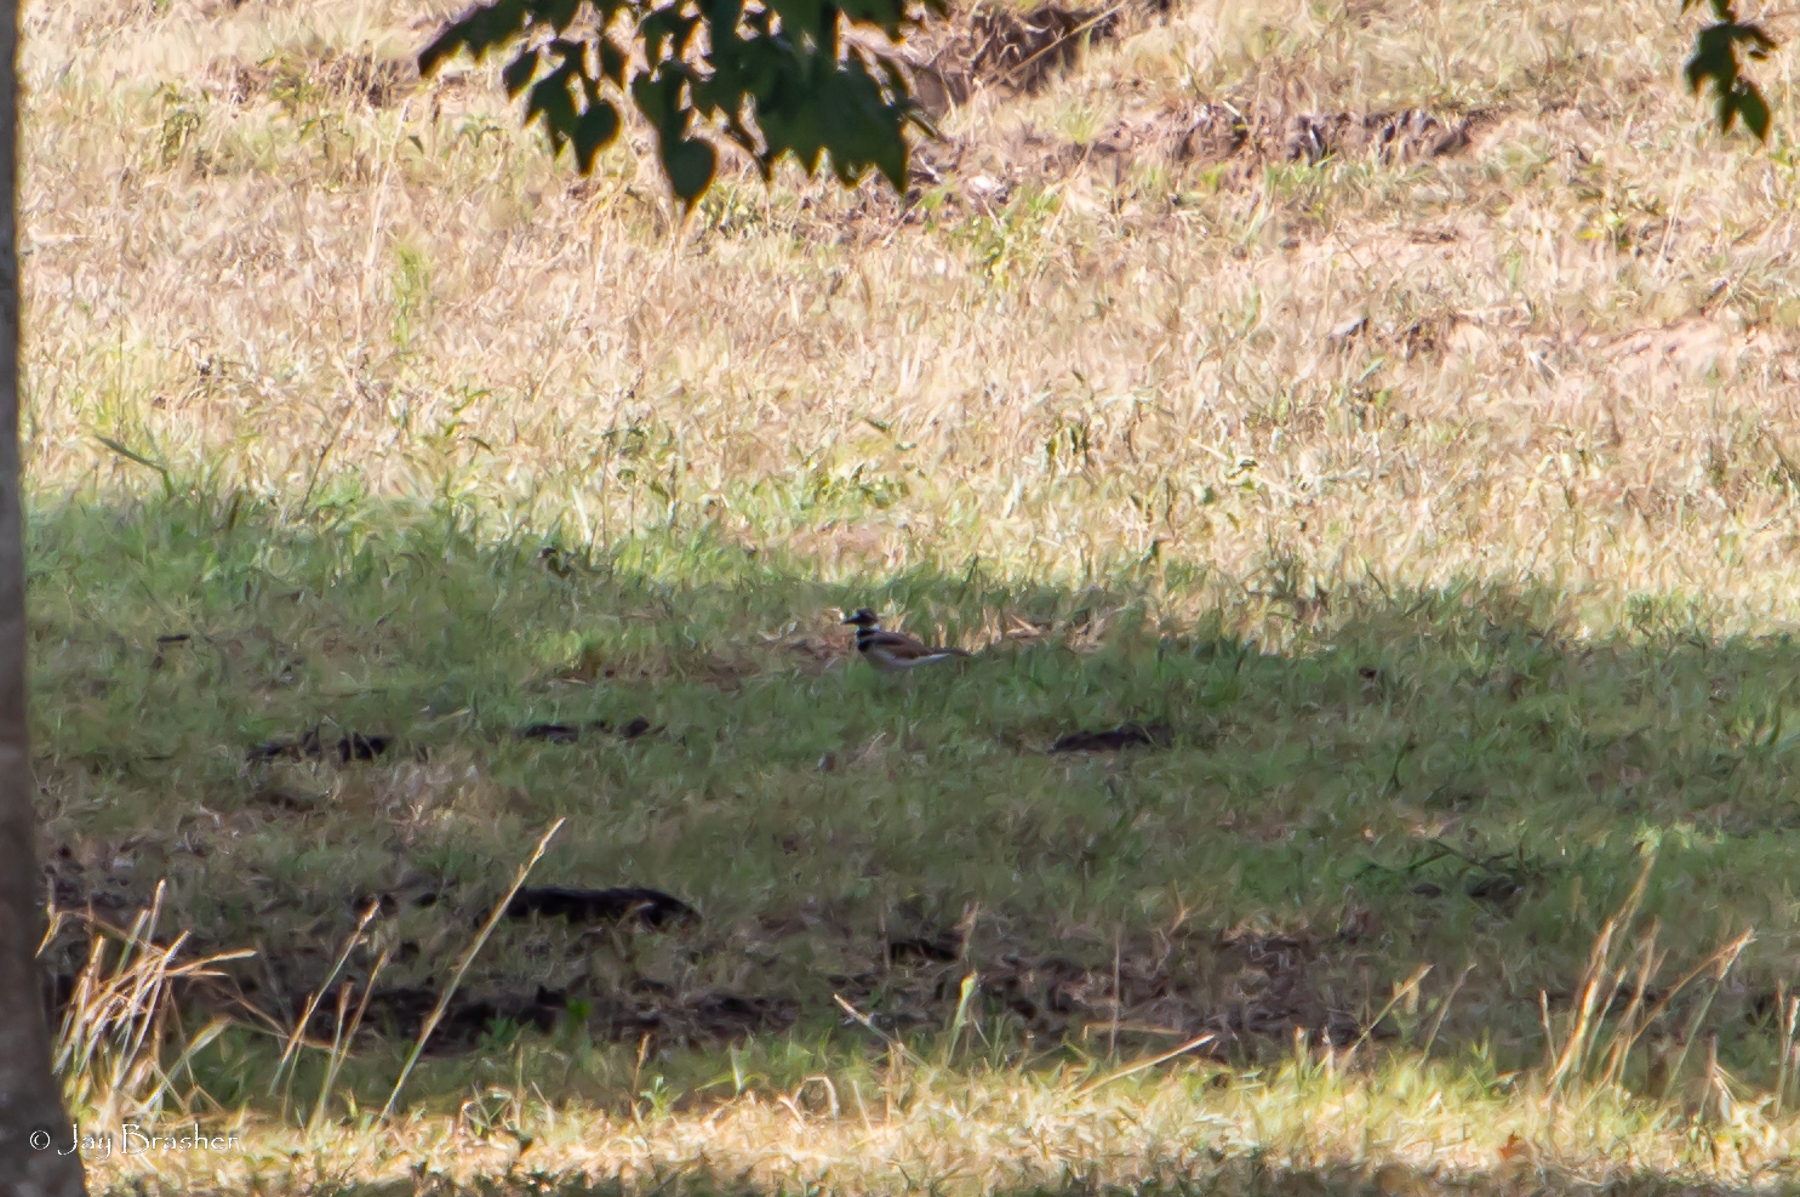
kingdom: Animalia
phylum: Chordata
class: Aves
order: Charadriiformes
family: Charadriidae
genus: Charadrius
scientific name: Charadrius vociferus
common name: Killdeer
